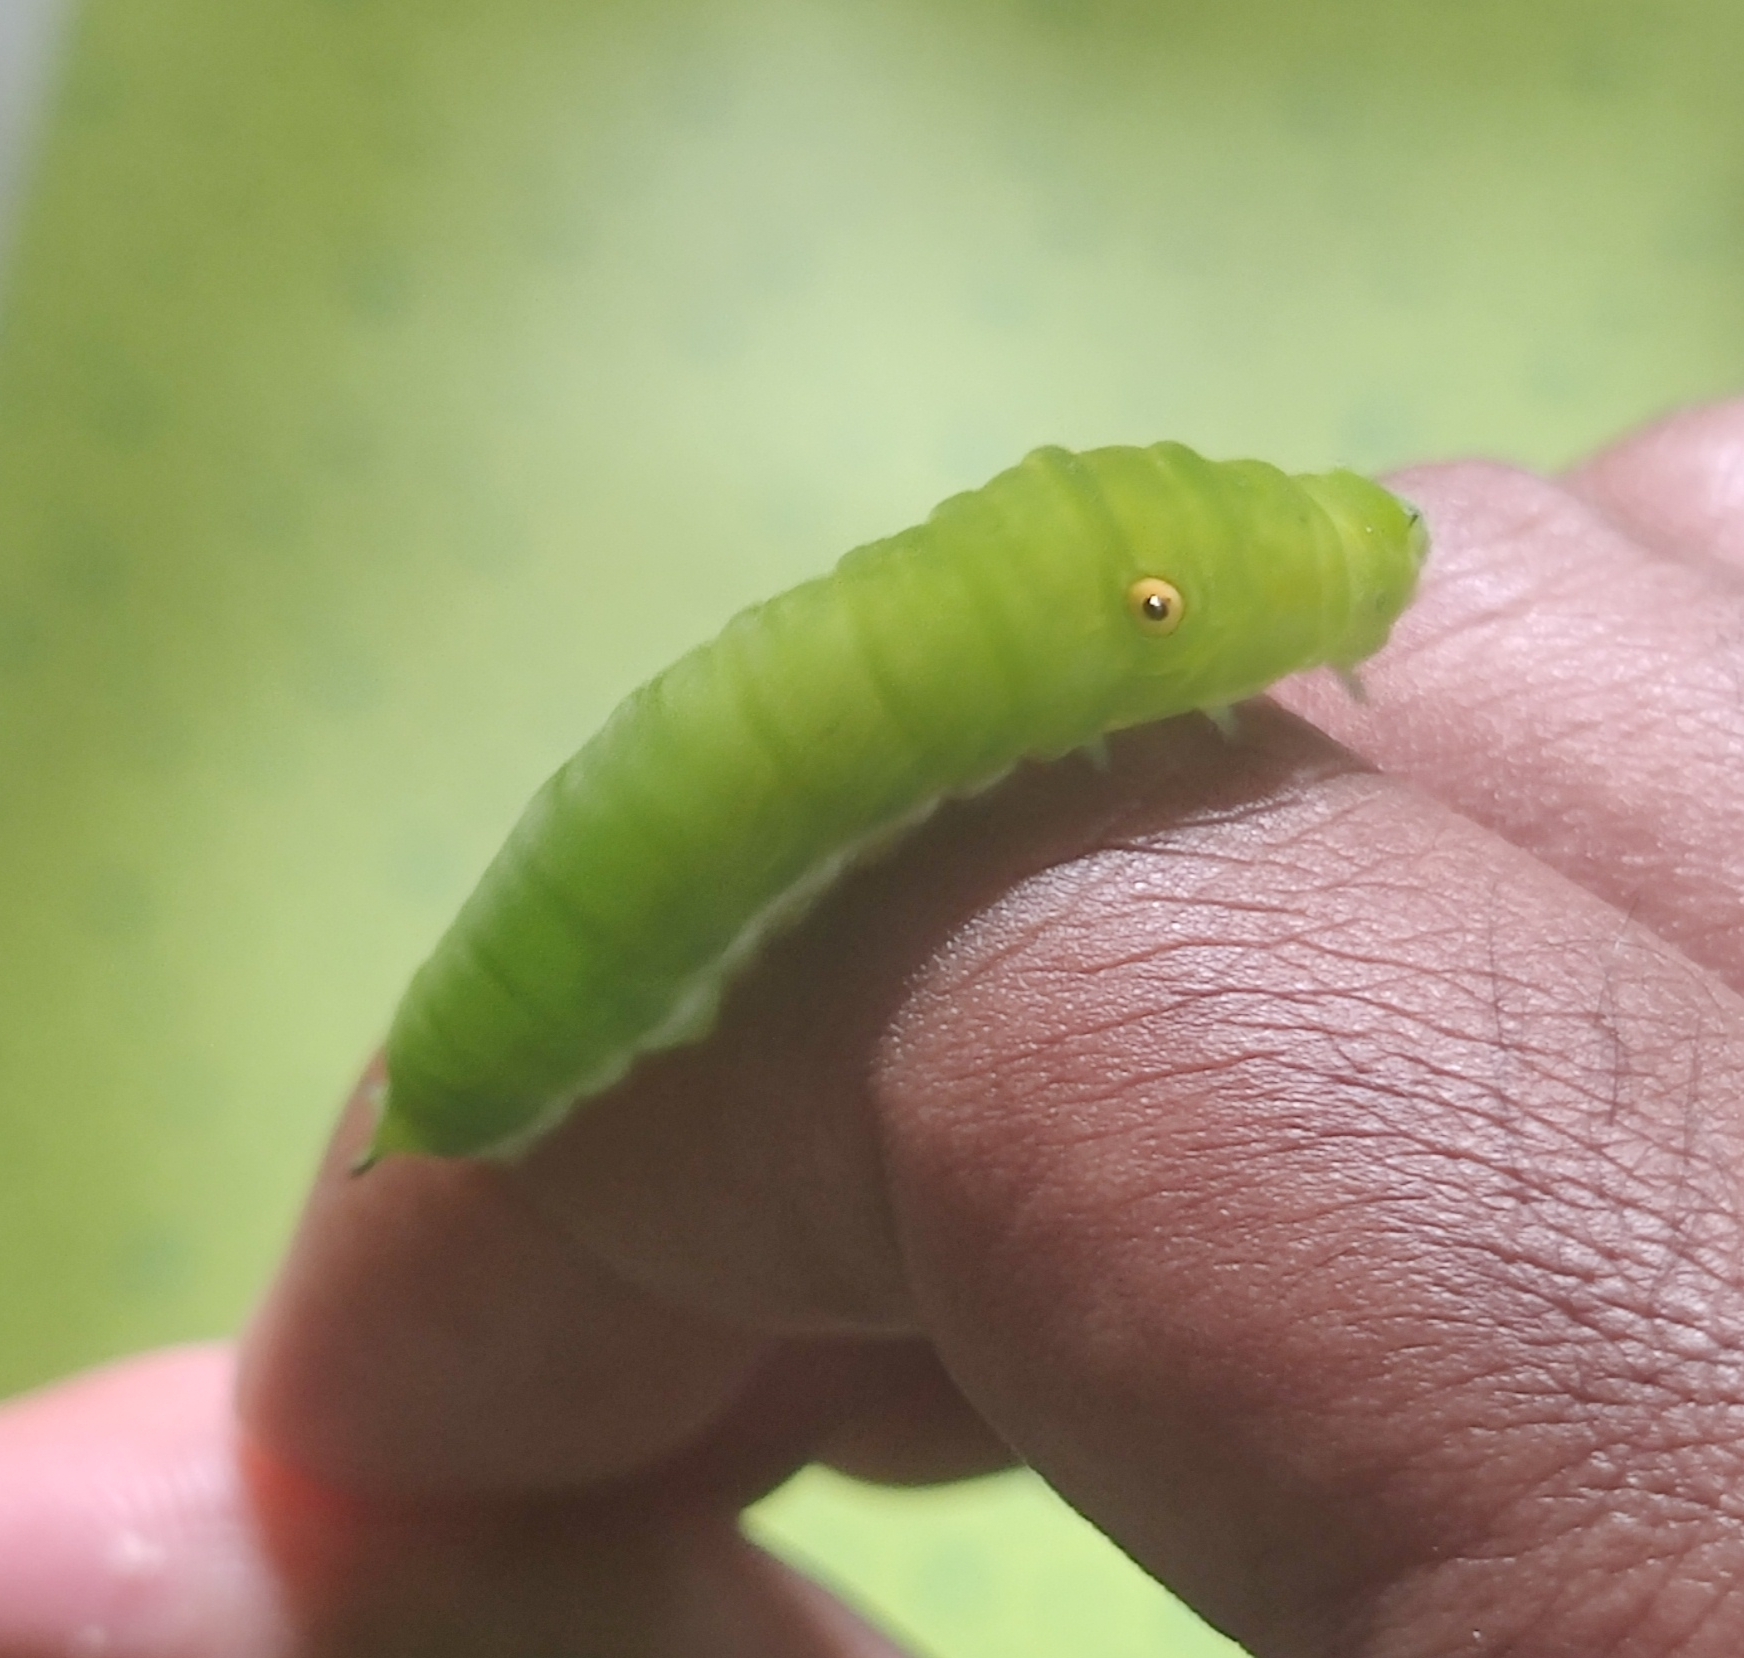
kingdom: Animalia
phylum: Arthropoda
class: Insecta
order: Lepidoptera
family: Papilionidae
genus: Graphium
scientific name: Graphium doson
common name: Common jay
